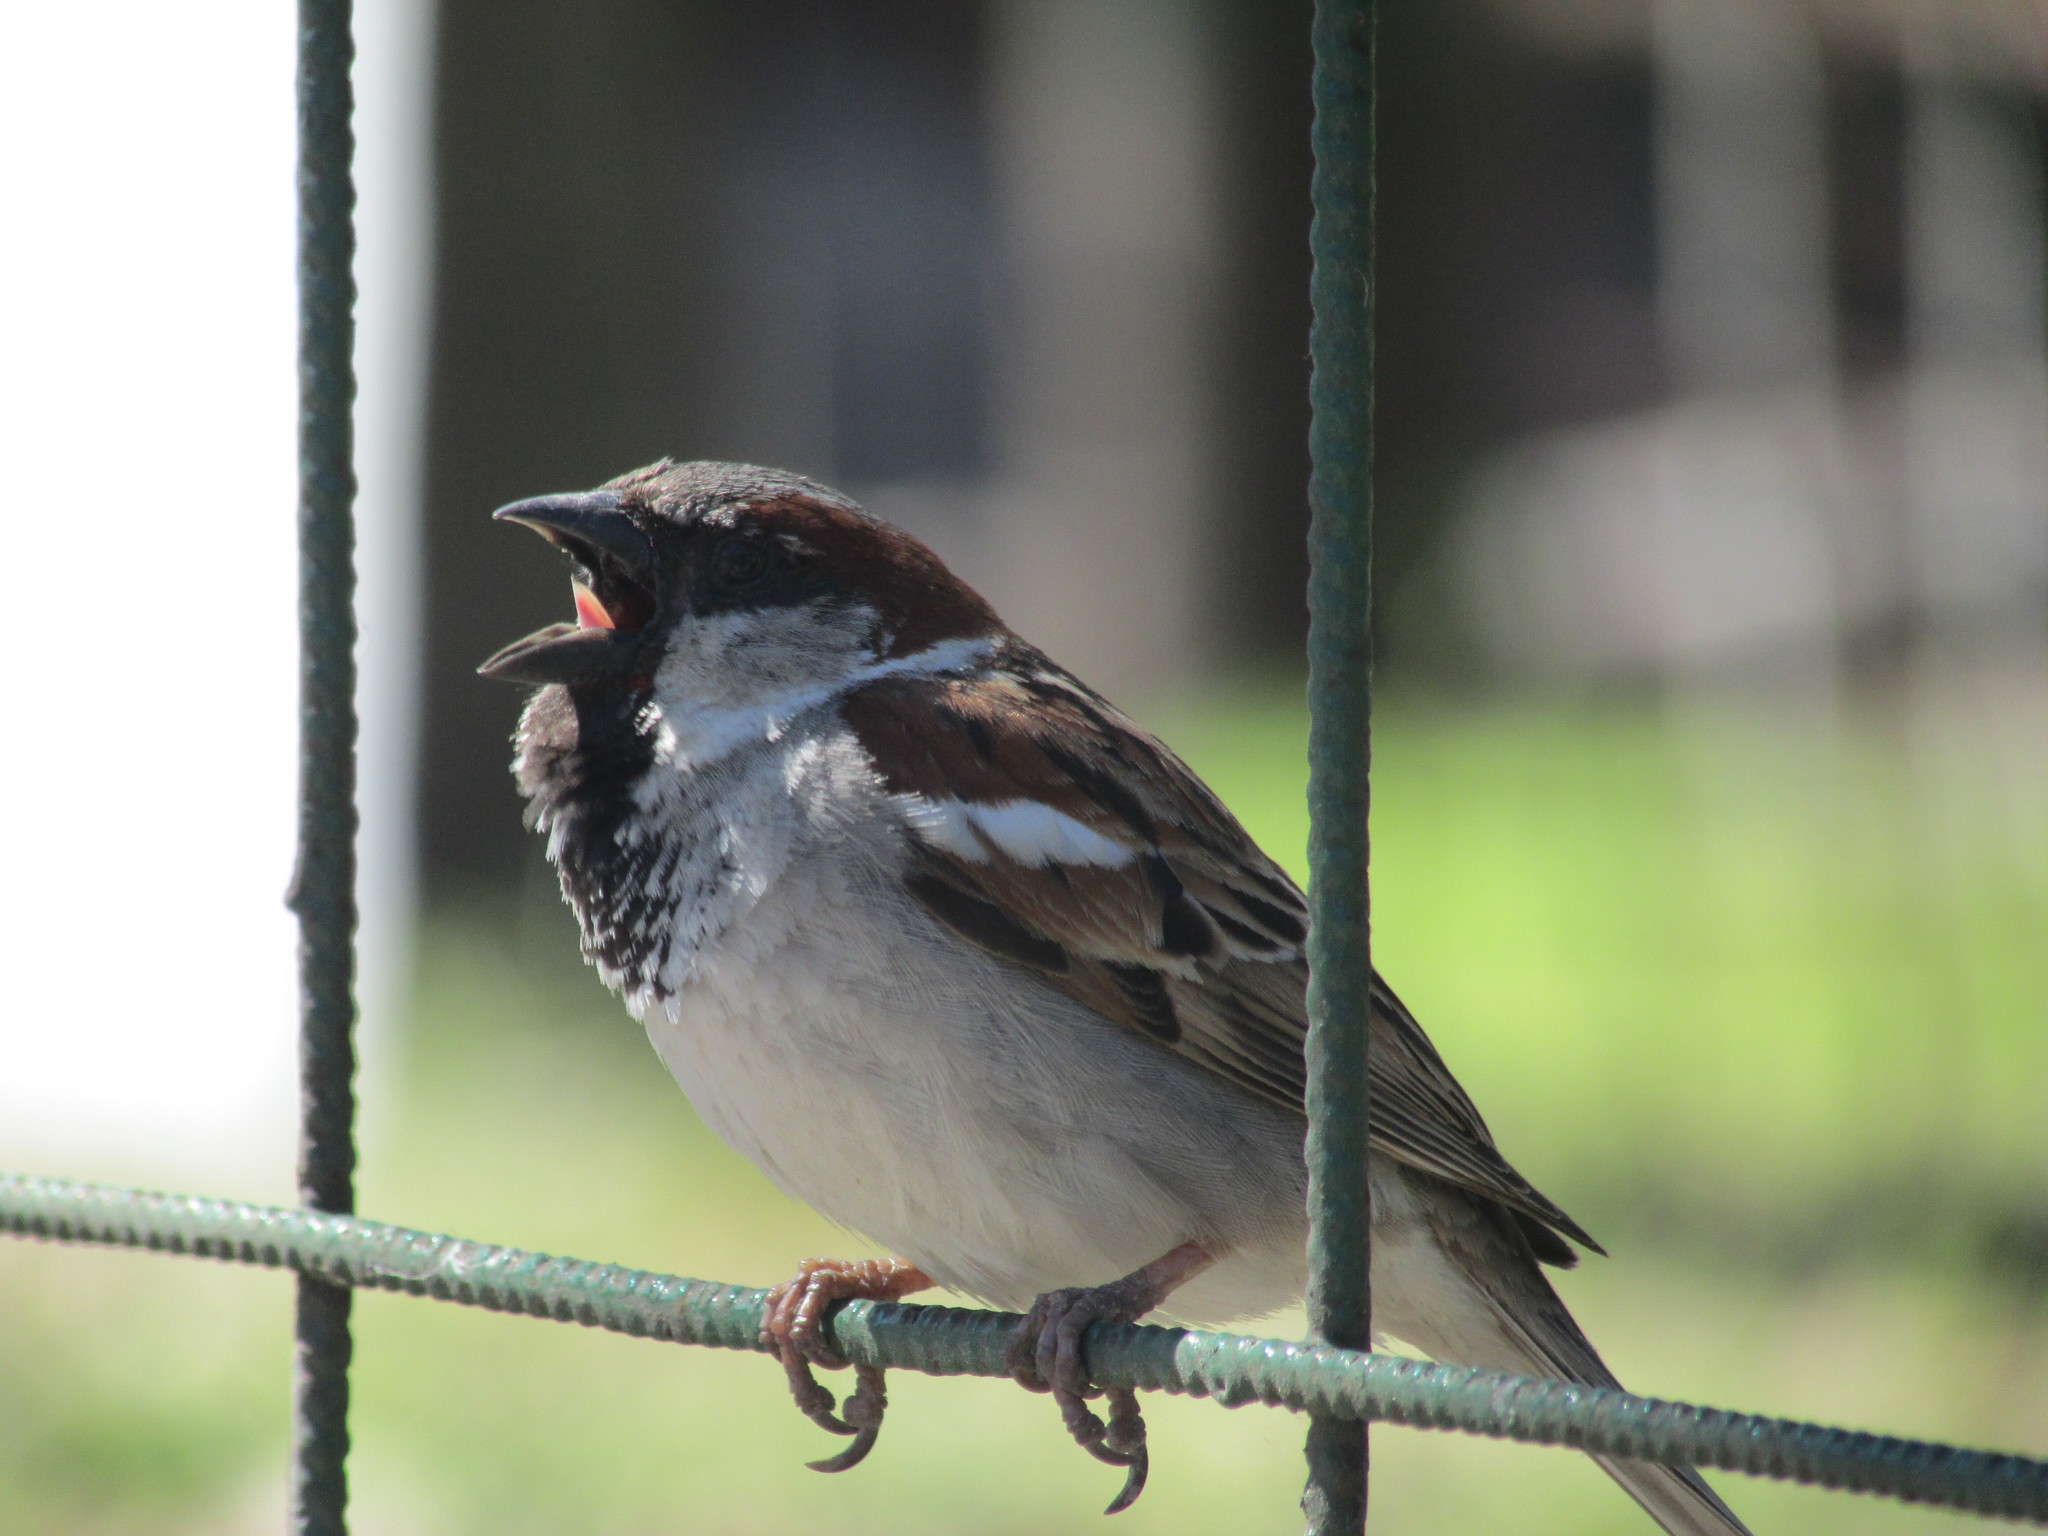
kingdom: Animalia
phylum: Chordata
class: Aves
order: Passeriformes
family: Passeridae
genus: Passer
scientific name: Passer domesticus
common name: House sparrow
